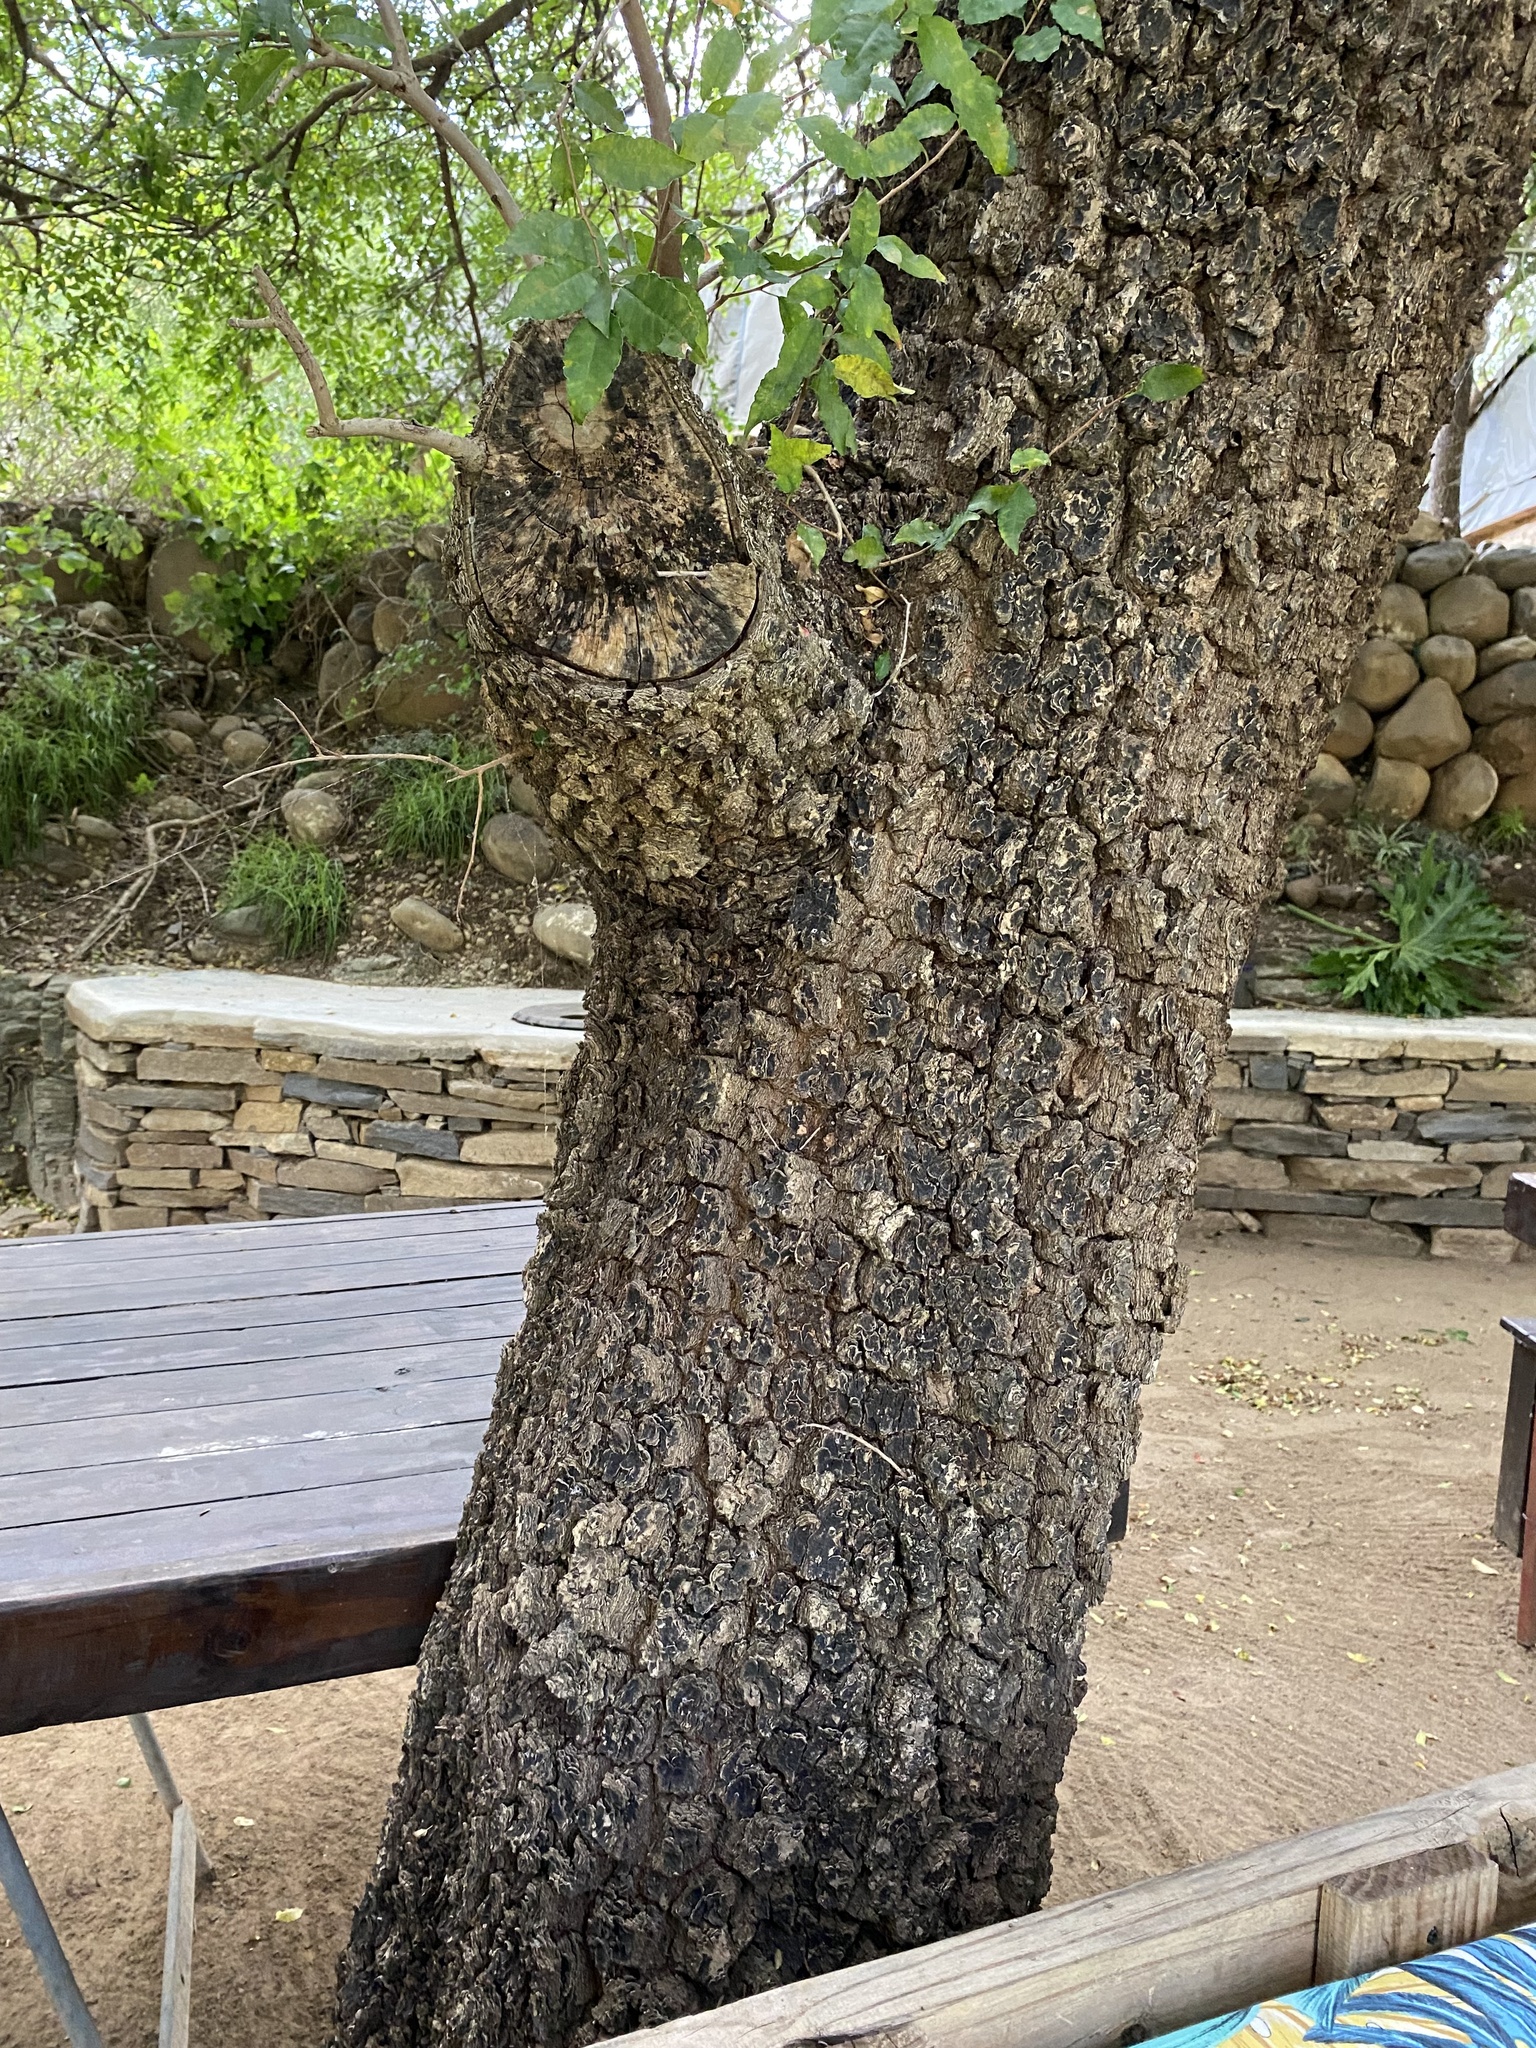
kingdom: Plantae
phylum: Tracheophyta
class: Magnoliopsida
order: Malpighiales
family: Euphorbiaceae
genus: Spirostachys
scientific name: Spirostachys africana
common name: Tamboti
